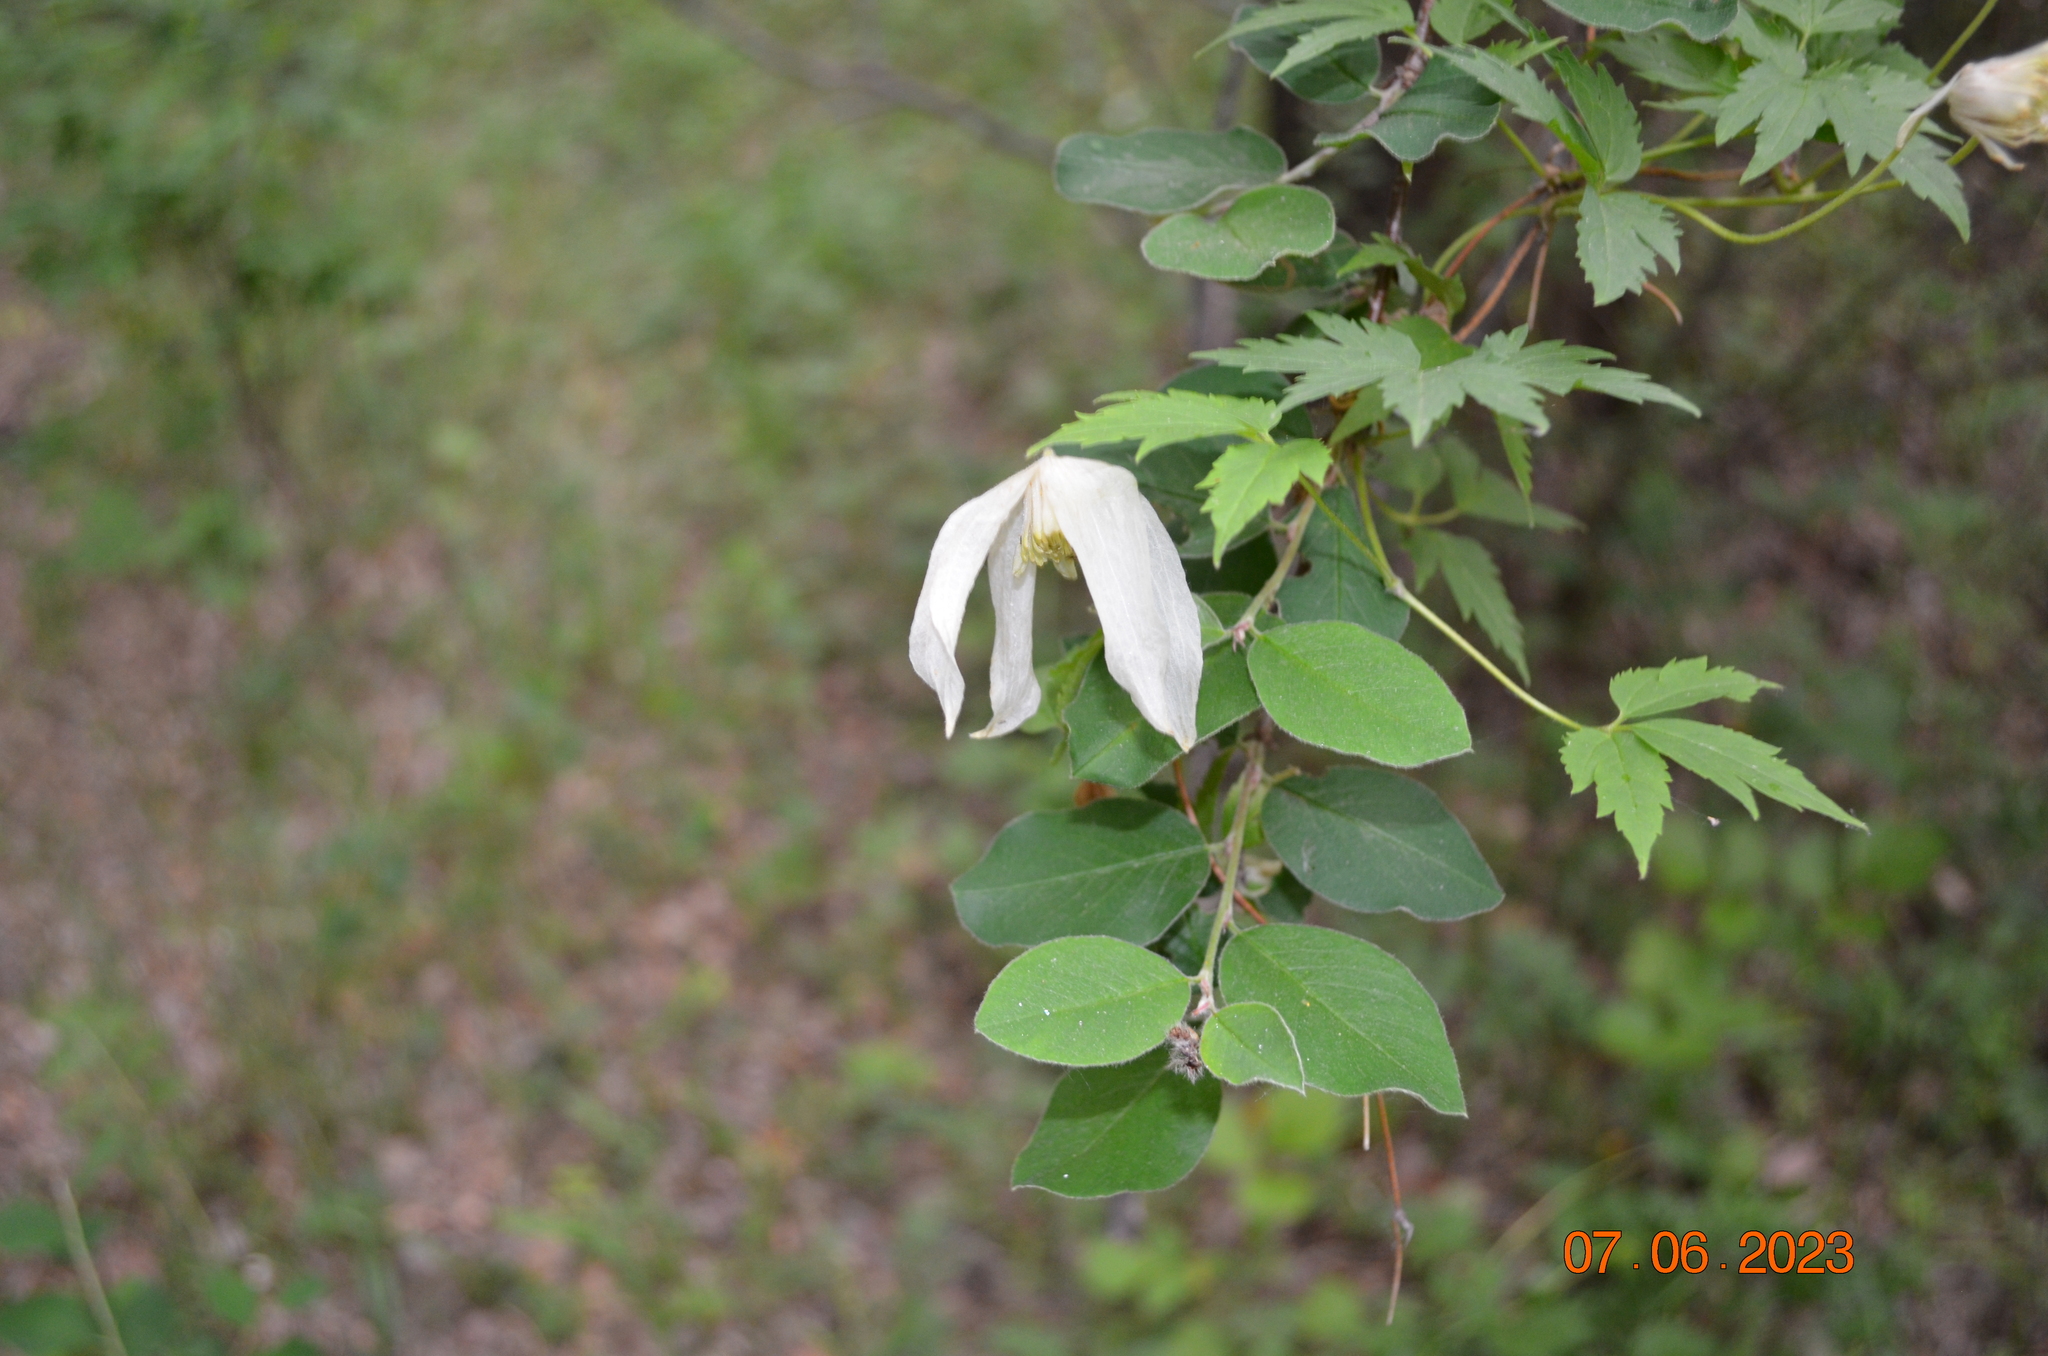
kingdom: Plantae
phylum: Tracheophyta
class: Magnoliopsida
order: Ranunculales
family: Ranunculaceae
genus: Clematis
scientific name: Clematis sibirica
